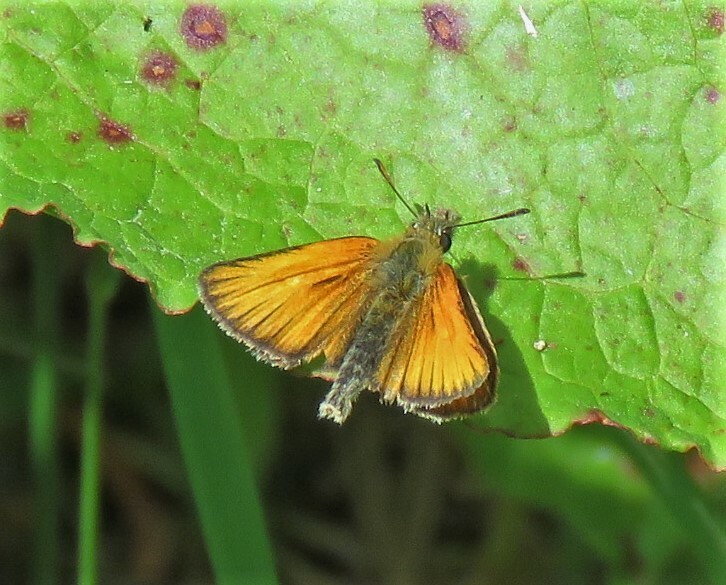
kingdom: Animalia
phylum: Arthropoda
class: Insecta
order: Lepidoptera
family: Hesperiidae
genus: Thymelicus
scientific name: Thymelicus lineola
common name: Essex skipper
